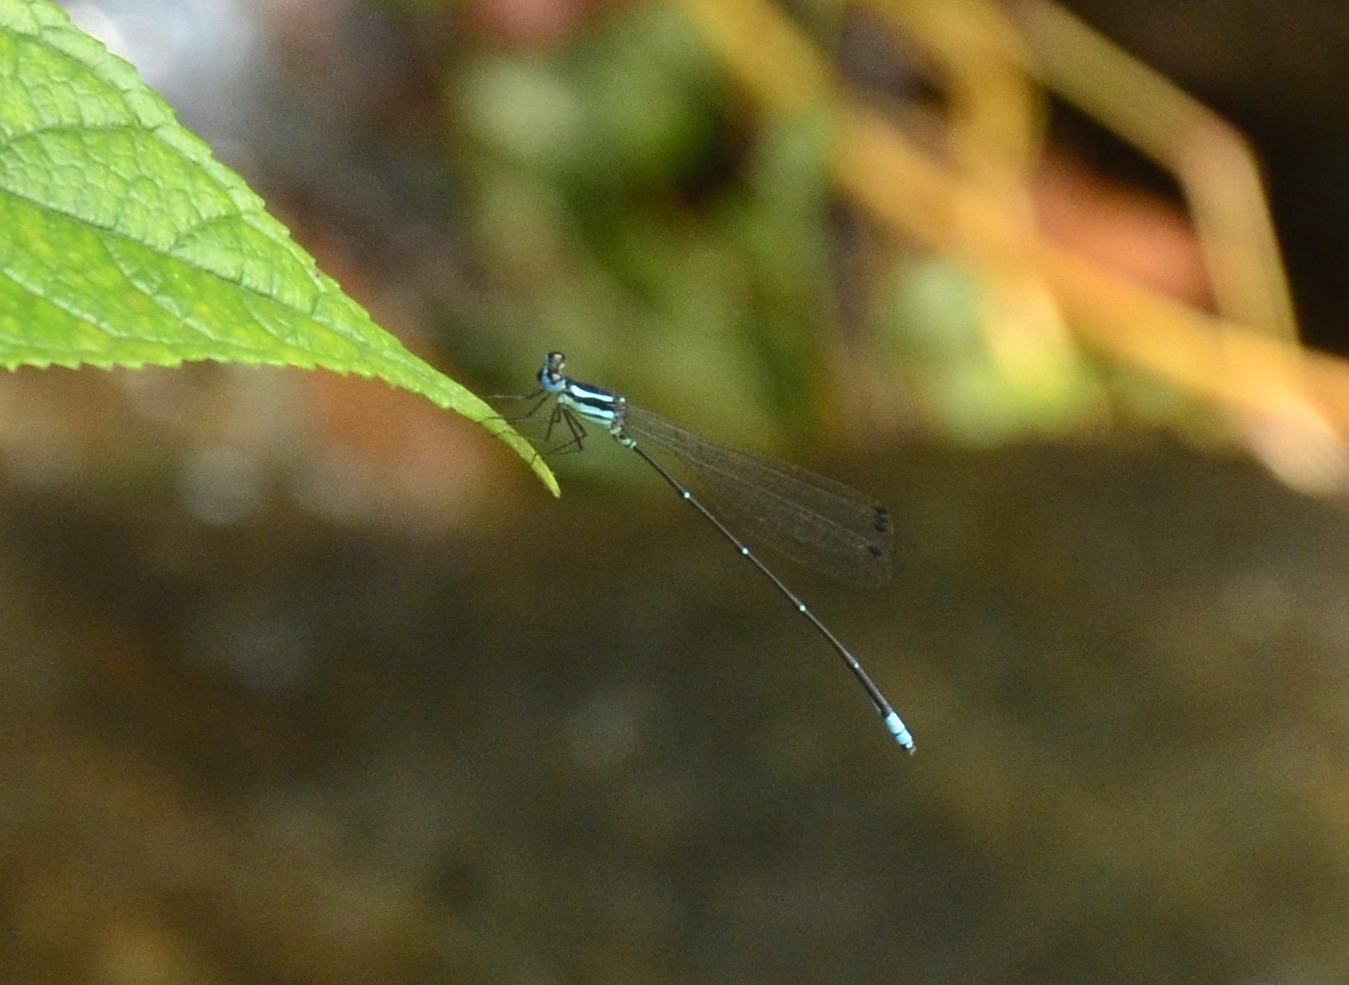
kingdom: Animalia
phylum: Arthropoda
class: Insecta
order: Odonata
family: Platycnemididae
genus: Caconeura
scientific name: Caconeura risi
